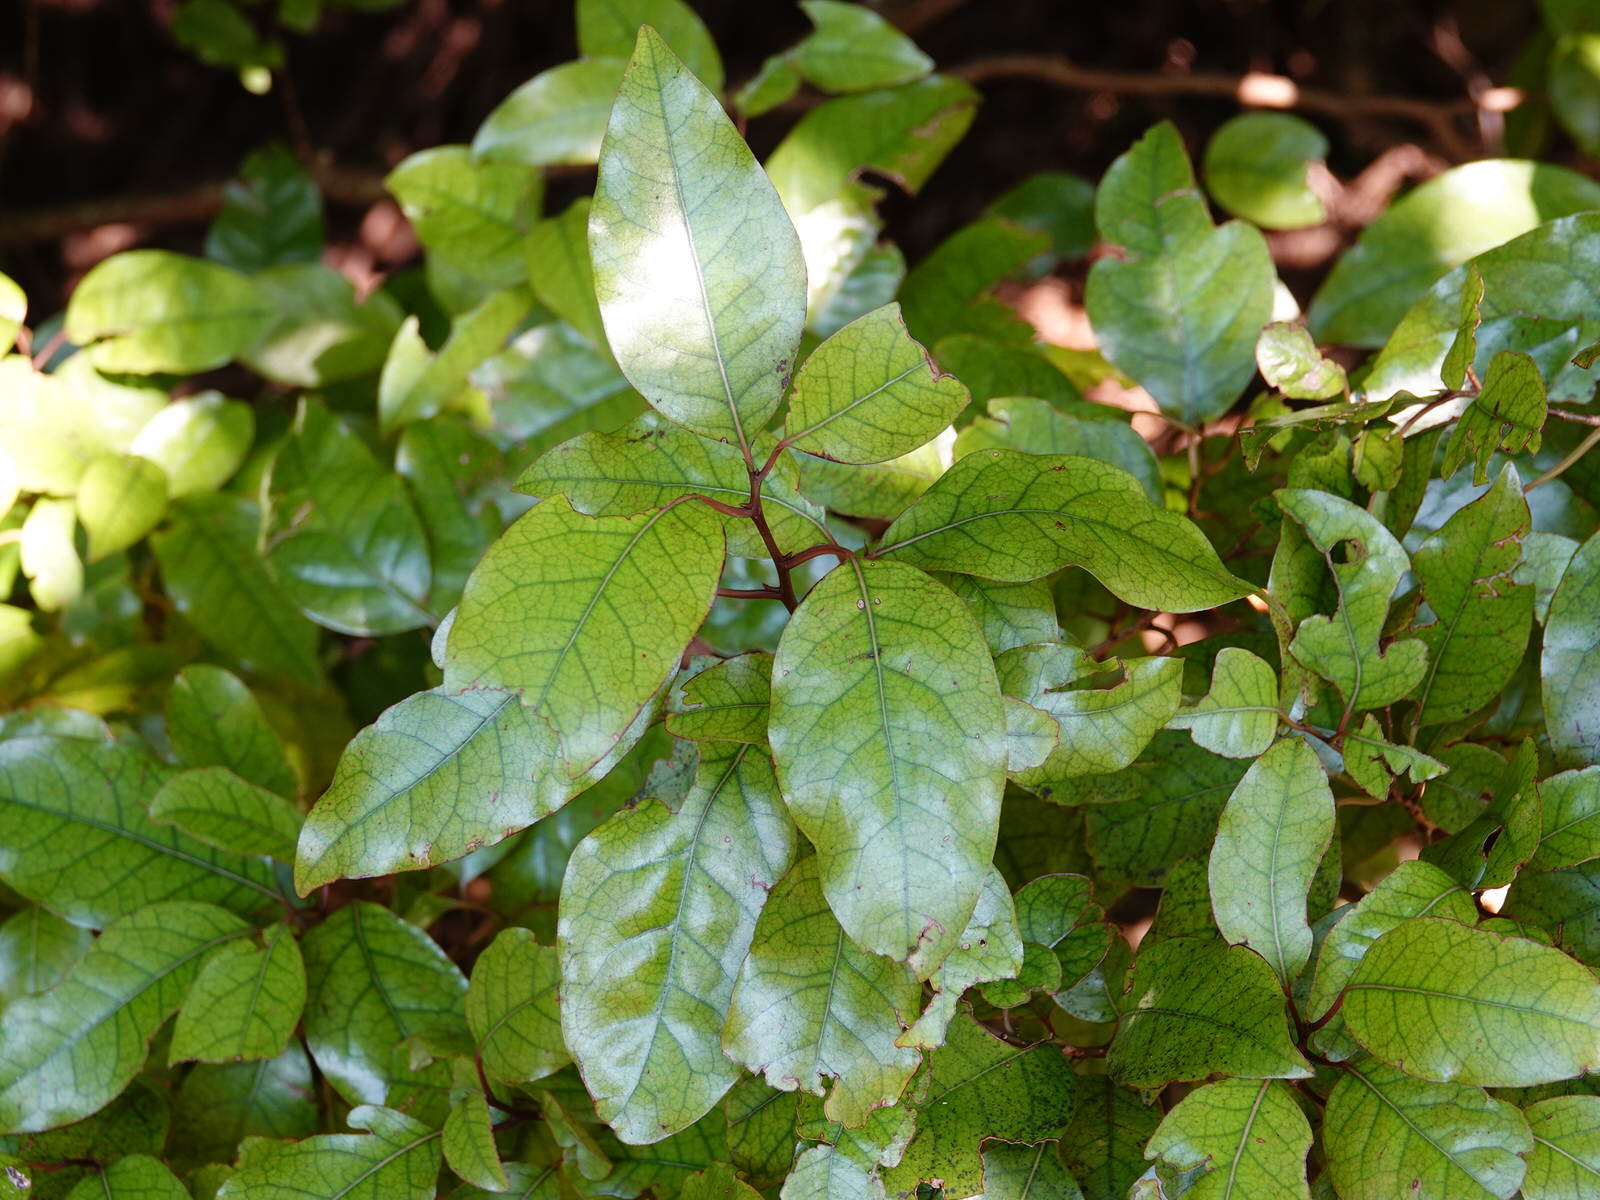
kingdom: Plantae
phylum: Tracheophyta
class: Magnoliopsida
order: Laurales
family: Lauraceae
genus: Litsea
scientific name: Litsea calicaris
